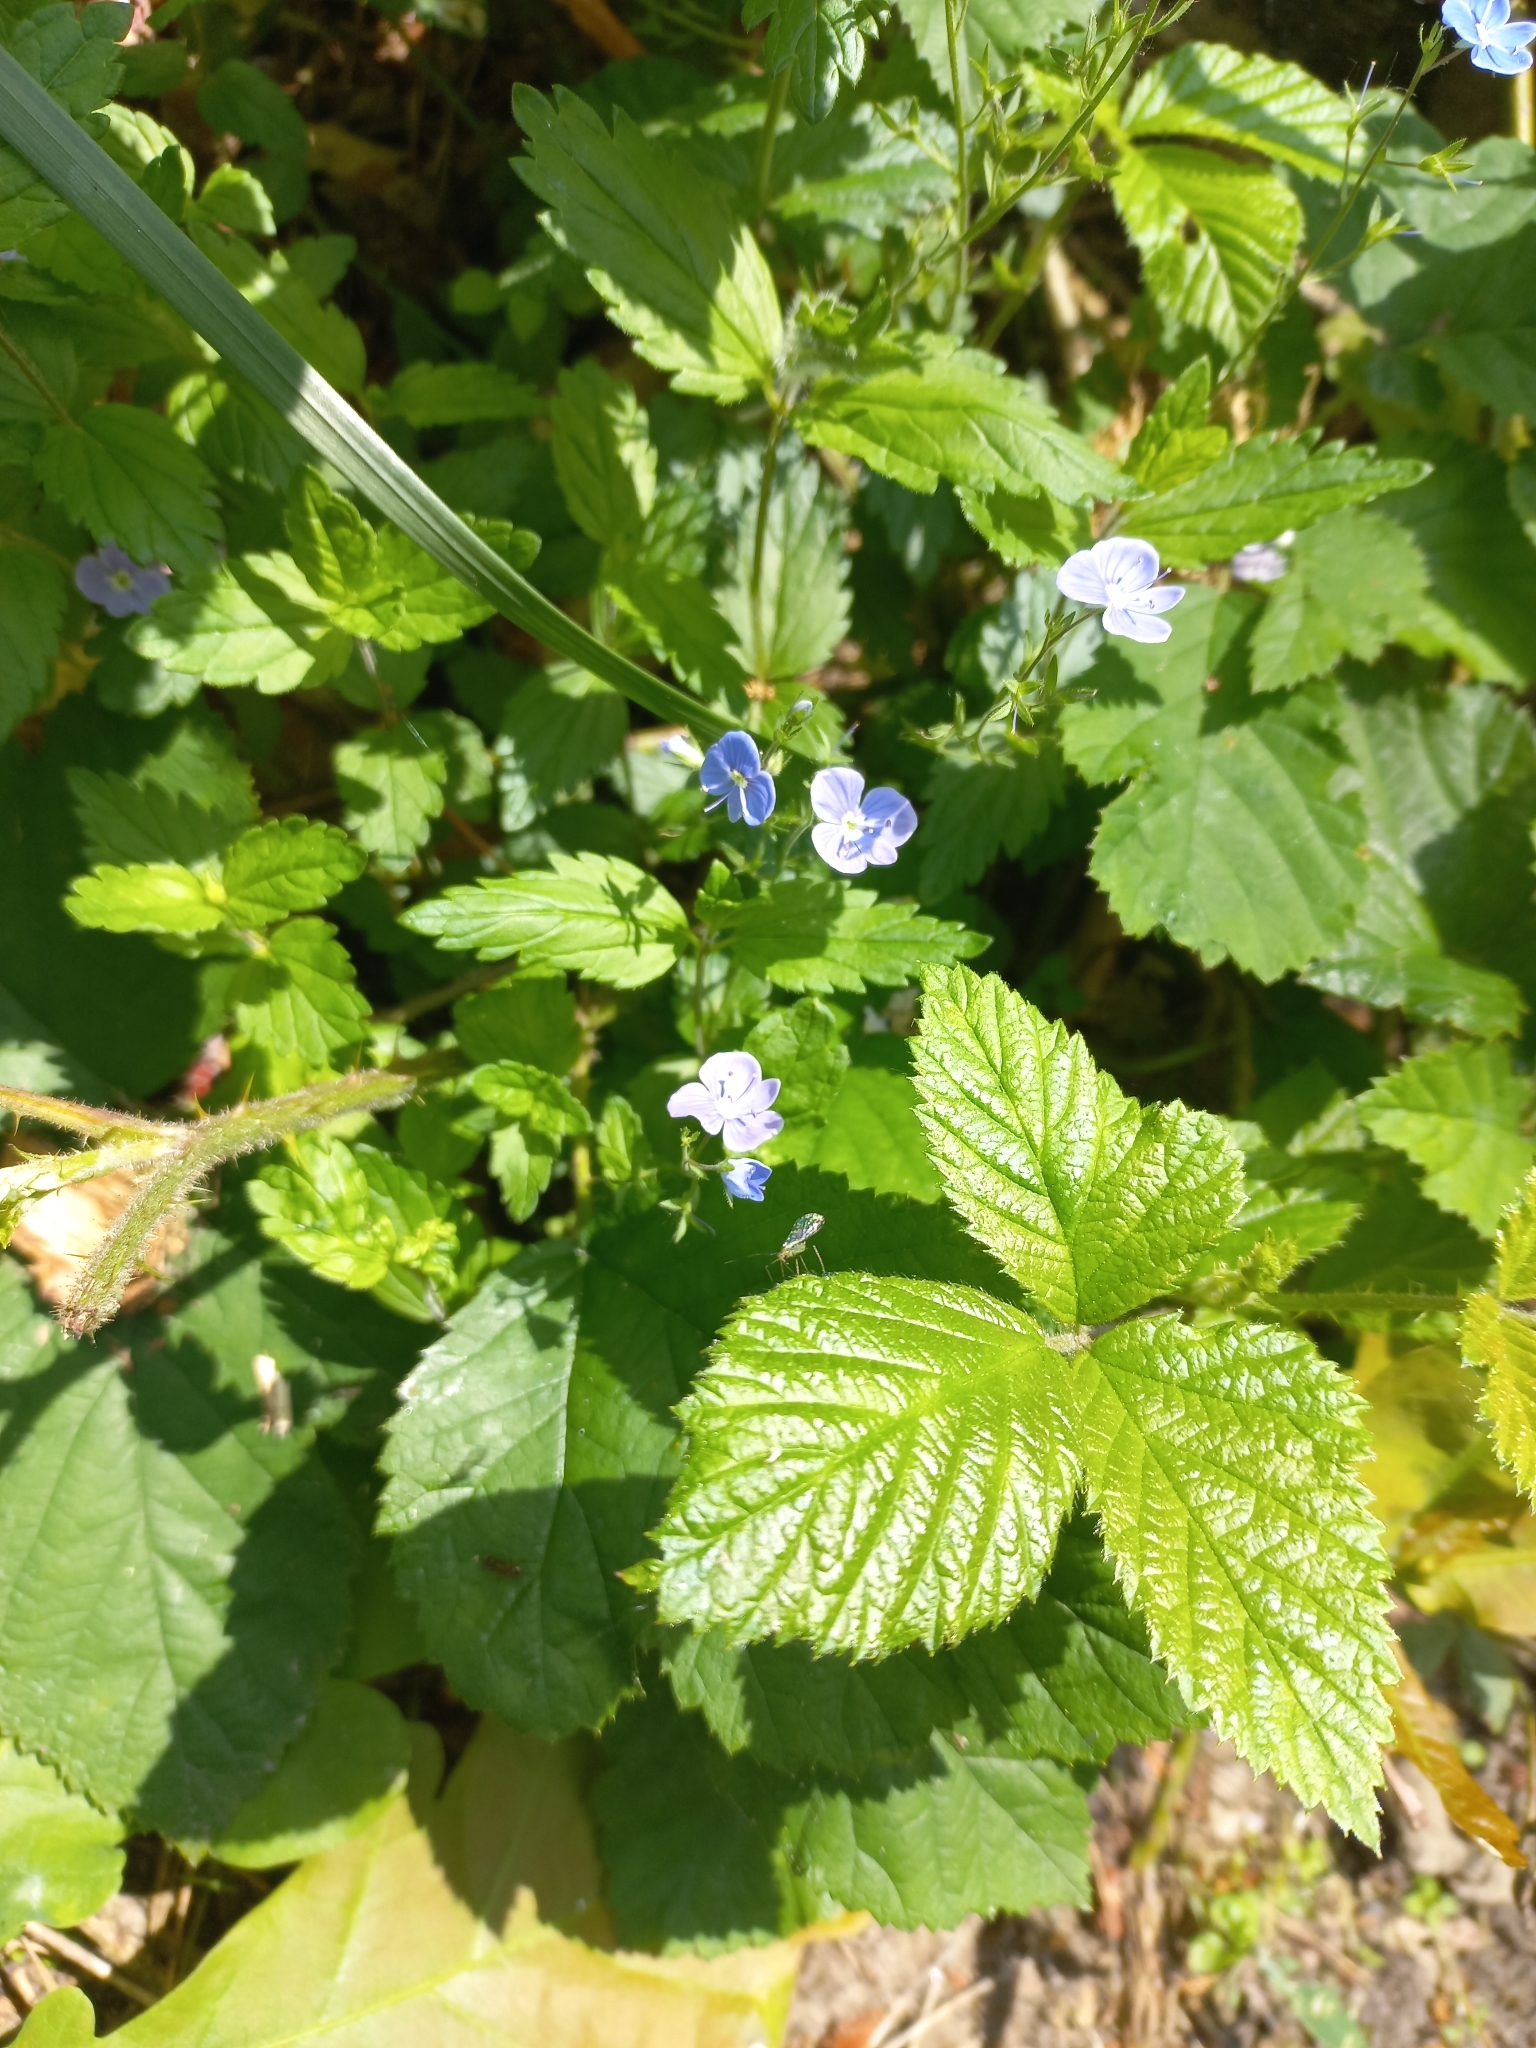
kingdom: Plantae
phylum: Tracheophyta
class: Magnoliopsida
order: Lamiales
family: Plantaginaceae
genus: Veronica
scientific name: Veronica chamaedrys
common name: Germander speedwell
